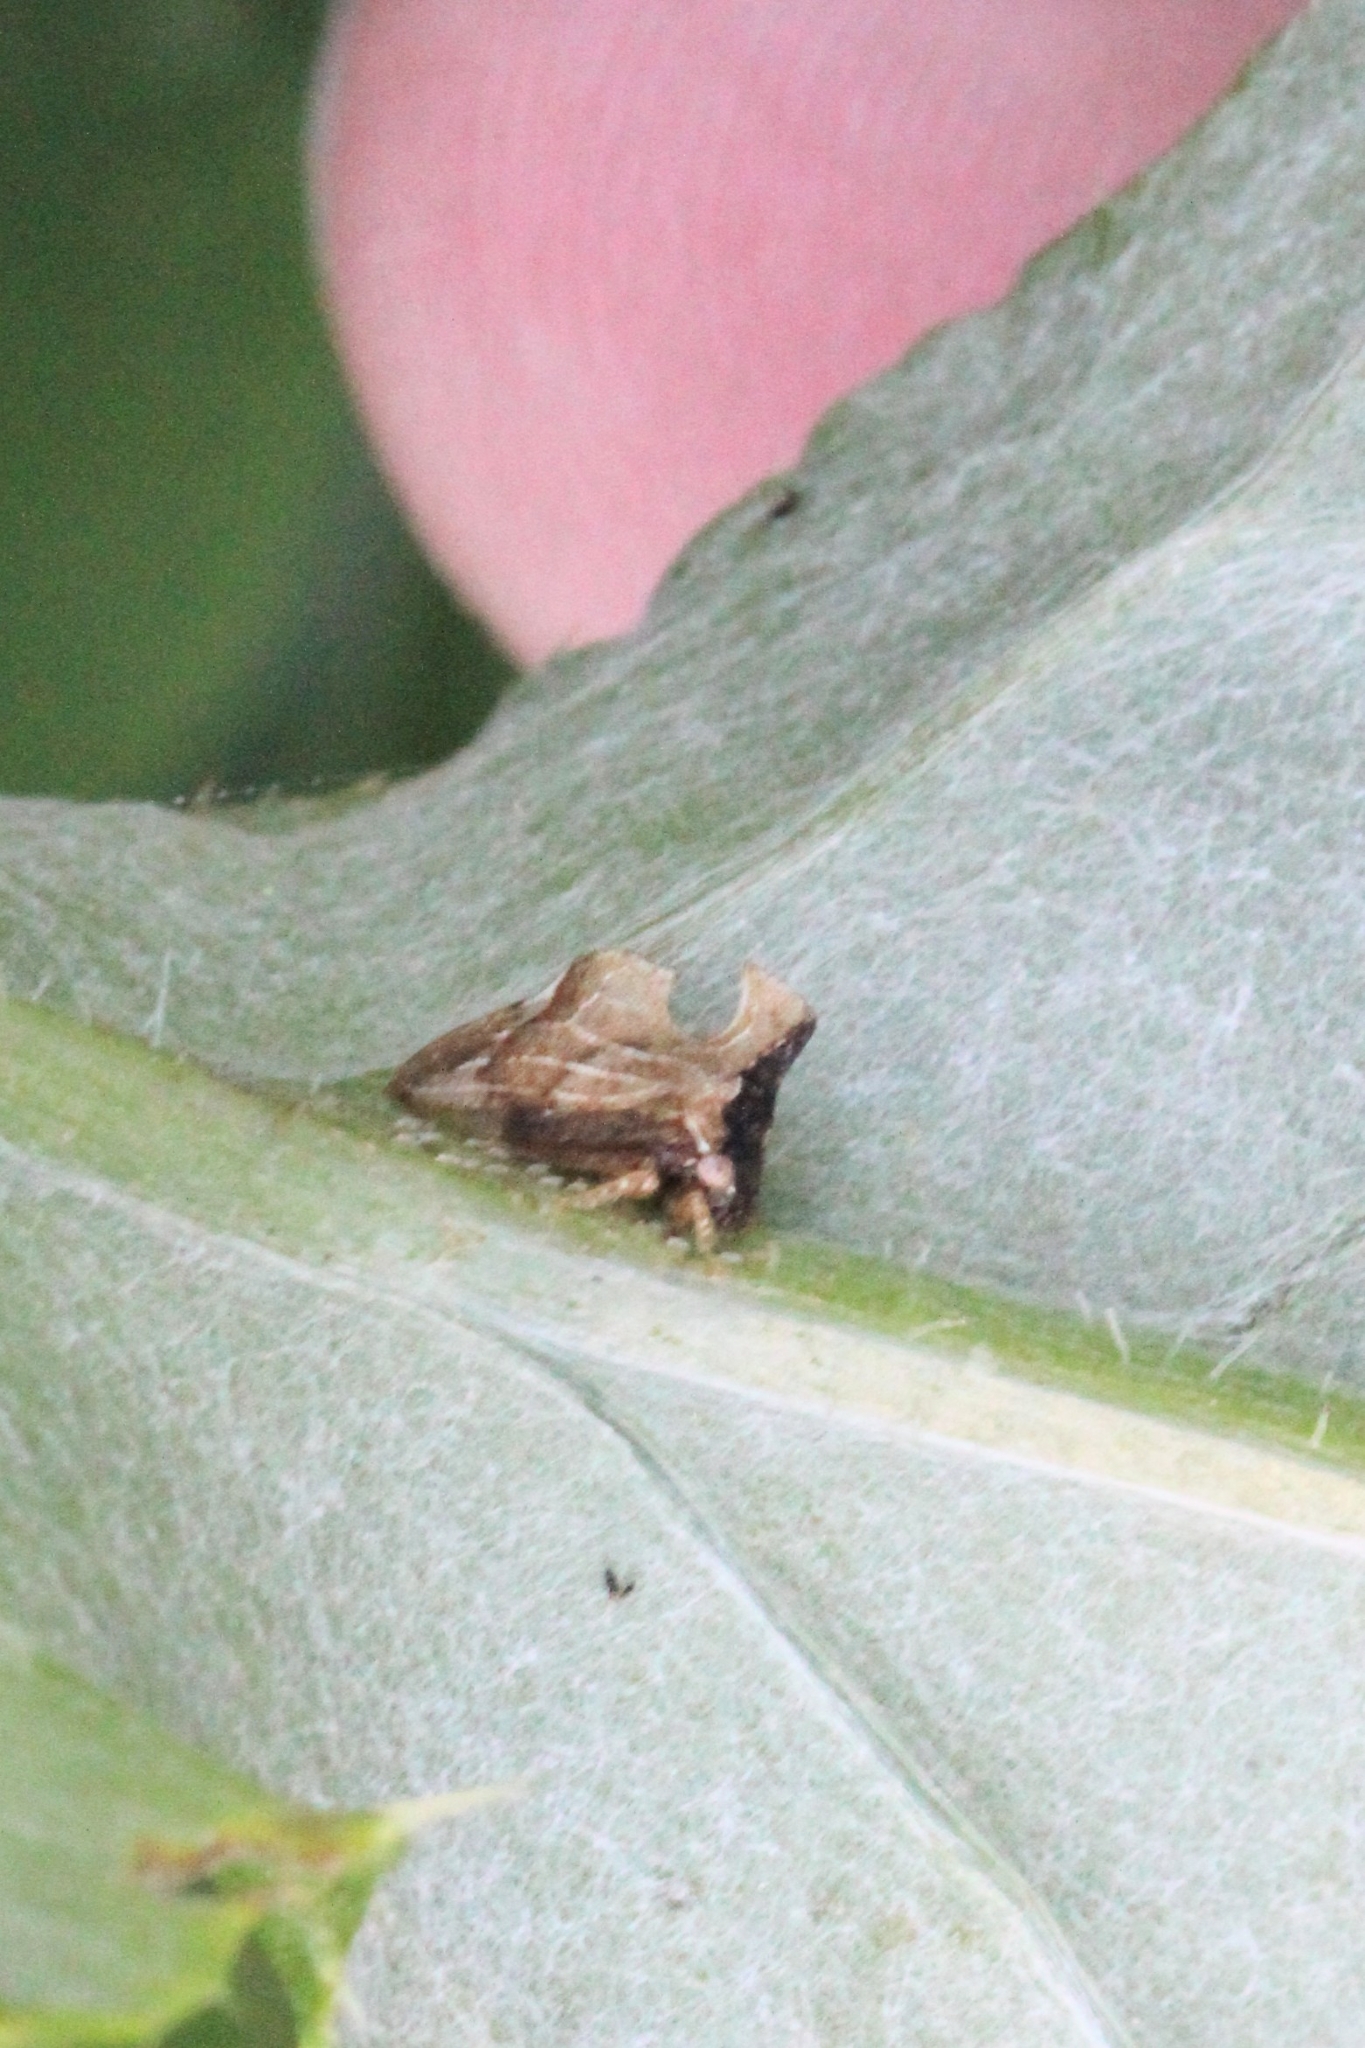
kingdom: Animalia
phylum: Arthropoda
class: Insecta
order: Hemiptera
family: Membracidae
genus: Entylia
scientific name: Entylia carinata
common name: Keeled treehopper
